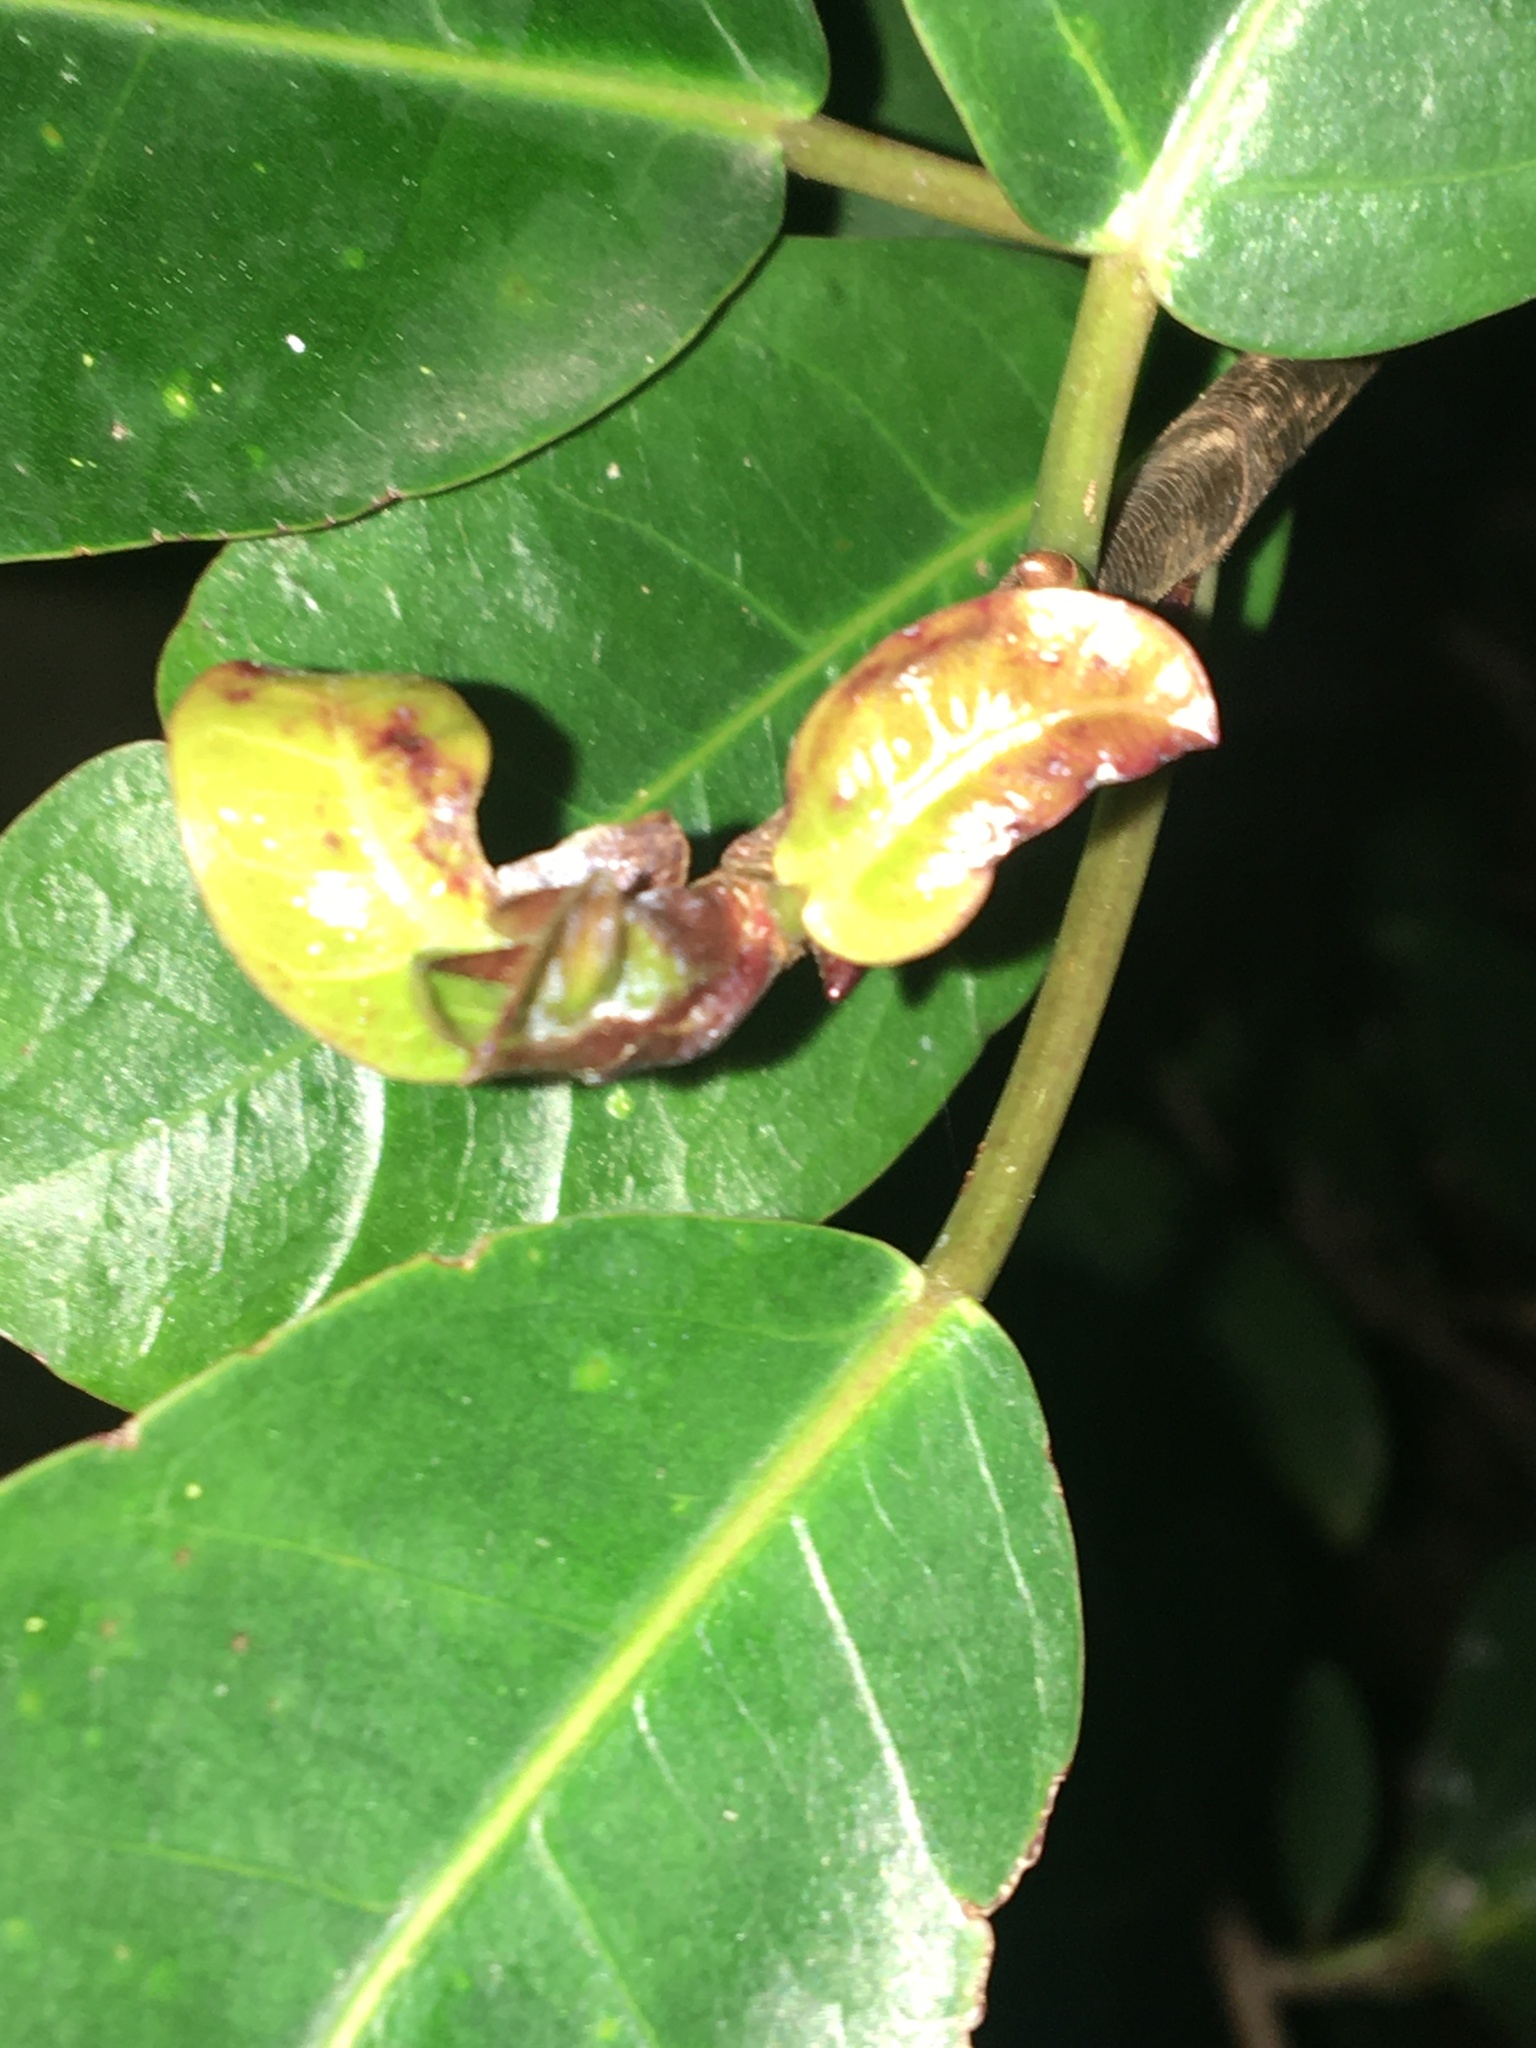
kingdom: Plantae
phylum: Tracheophyta
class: Magnoliopsida
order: Rosales
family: Moraceae
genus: Ficus
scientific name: Ficus thonningii
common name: Fig
